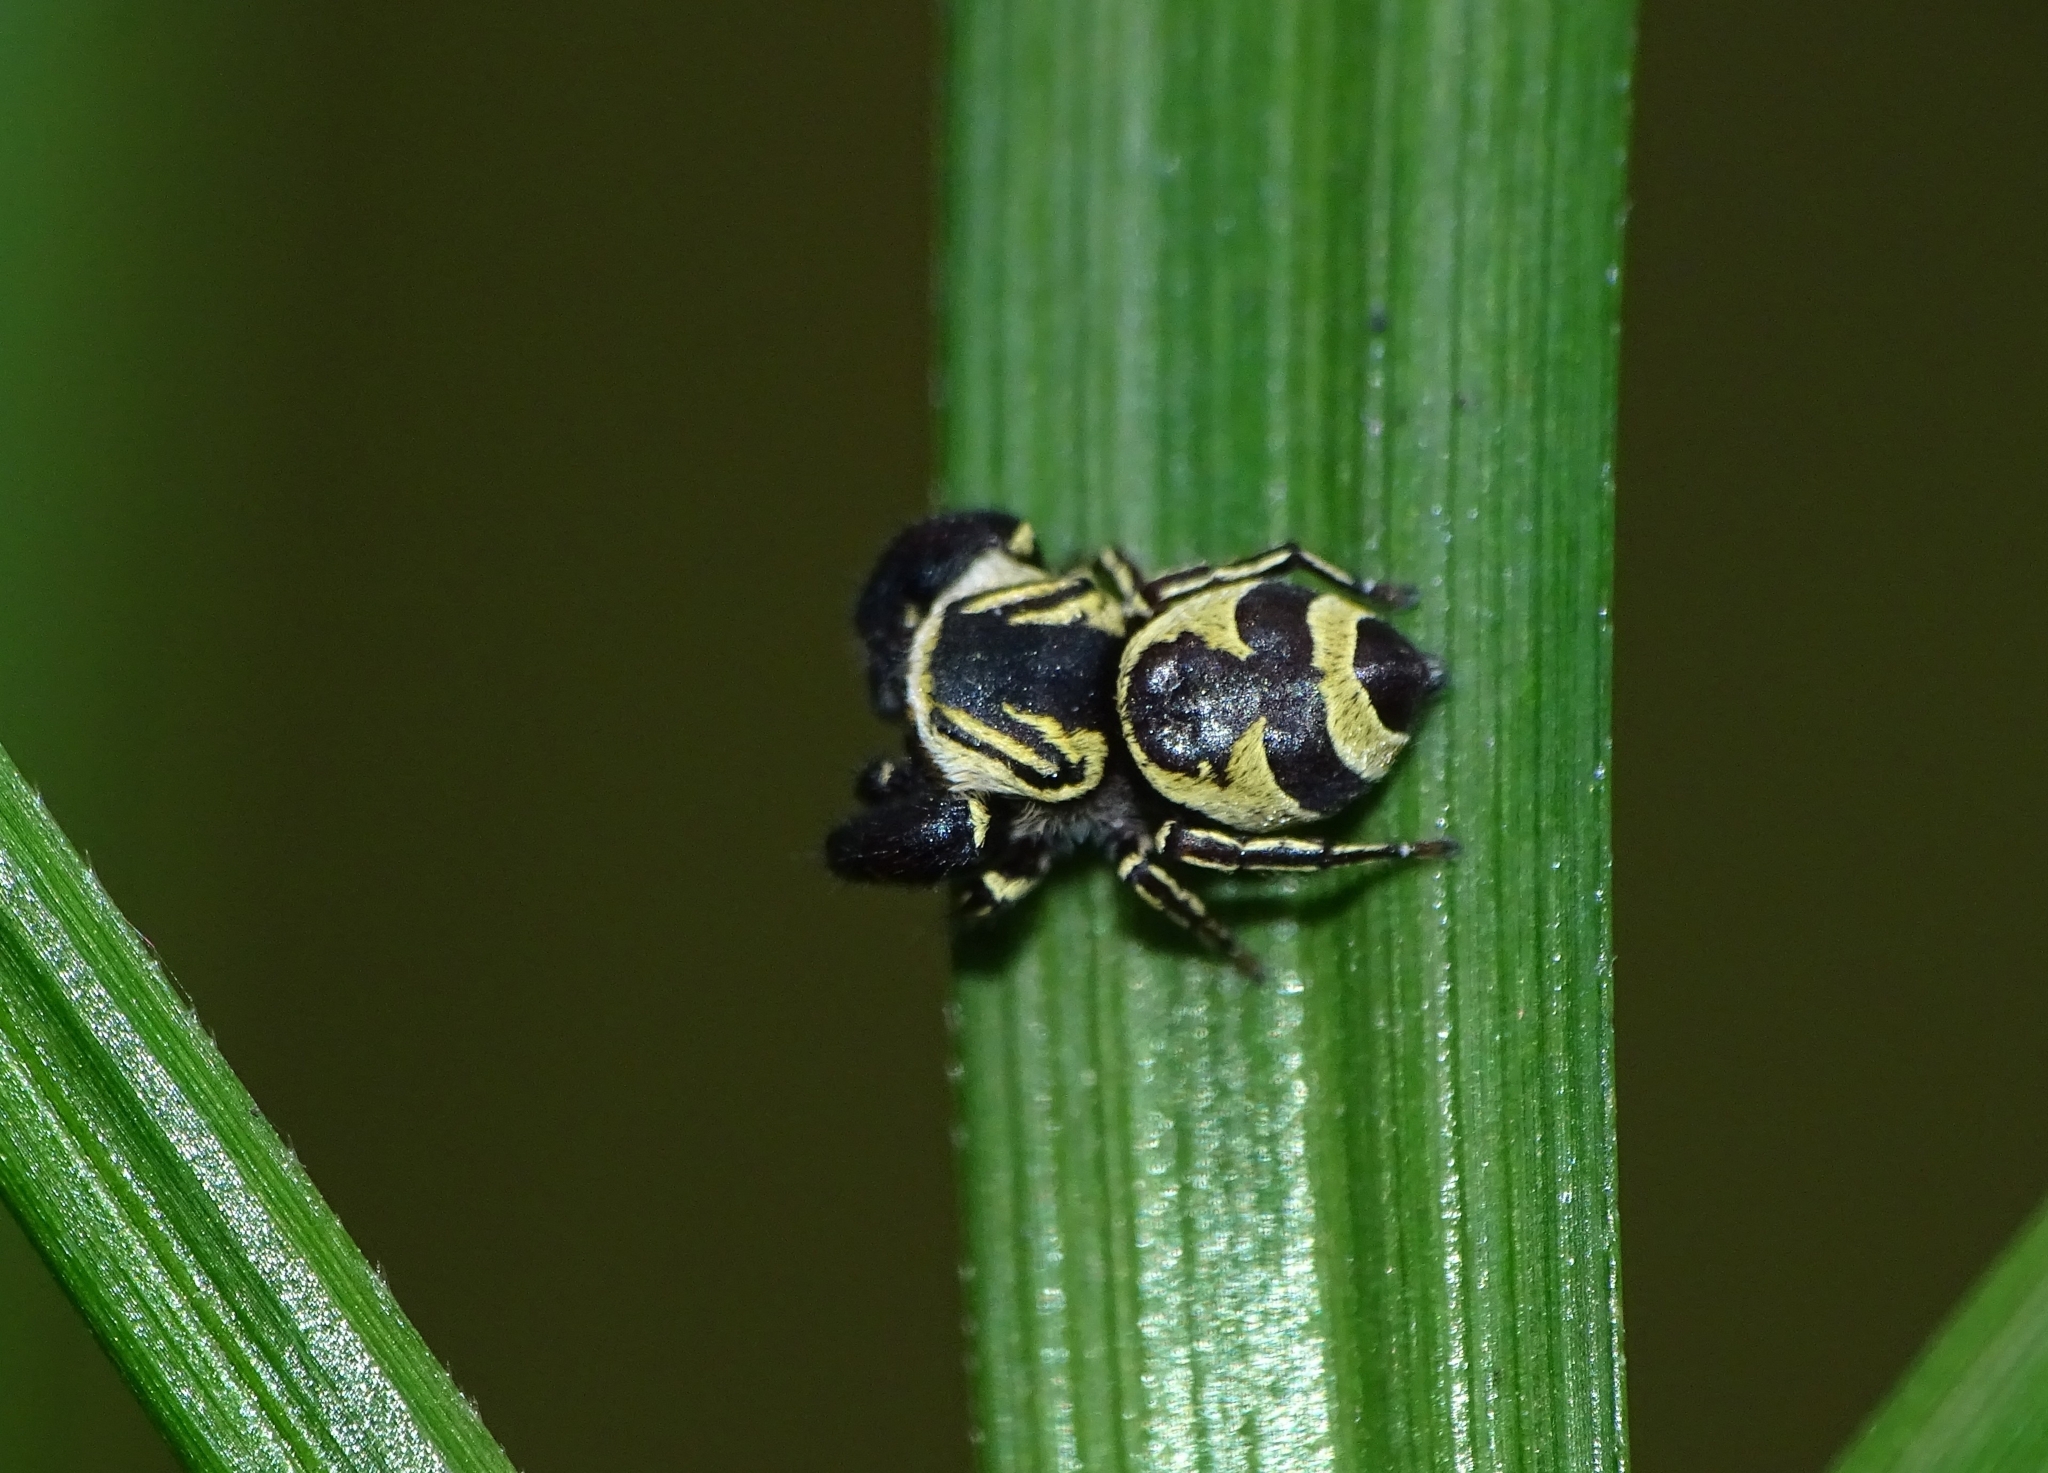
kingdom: Animalia
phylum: Arthropoda
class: Arachnida
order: Araneae
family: Salticidae
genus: Rhene
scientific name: Rhene flavicomans
